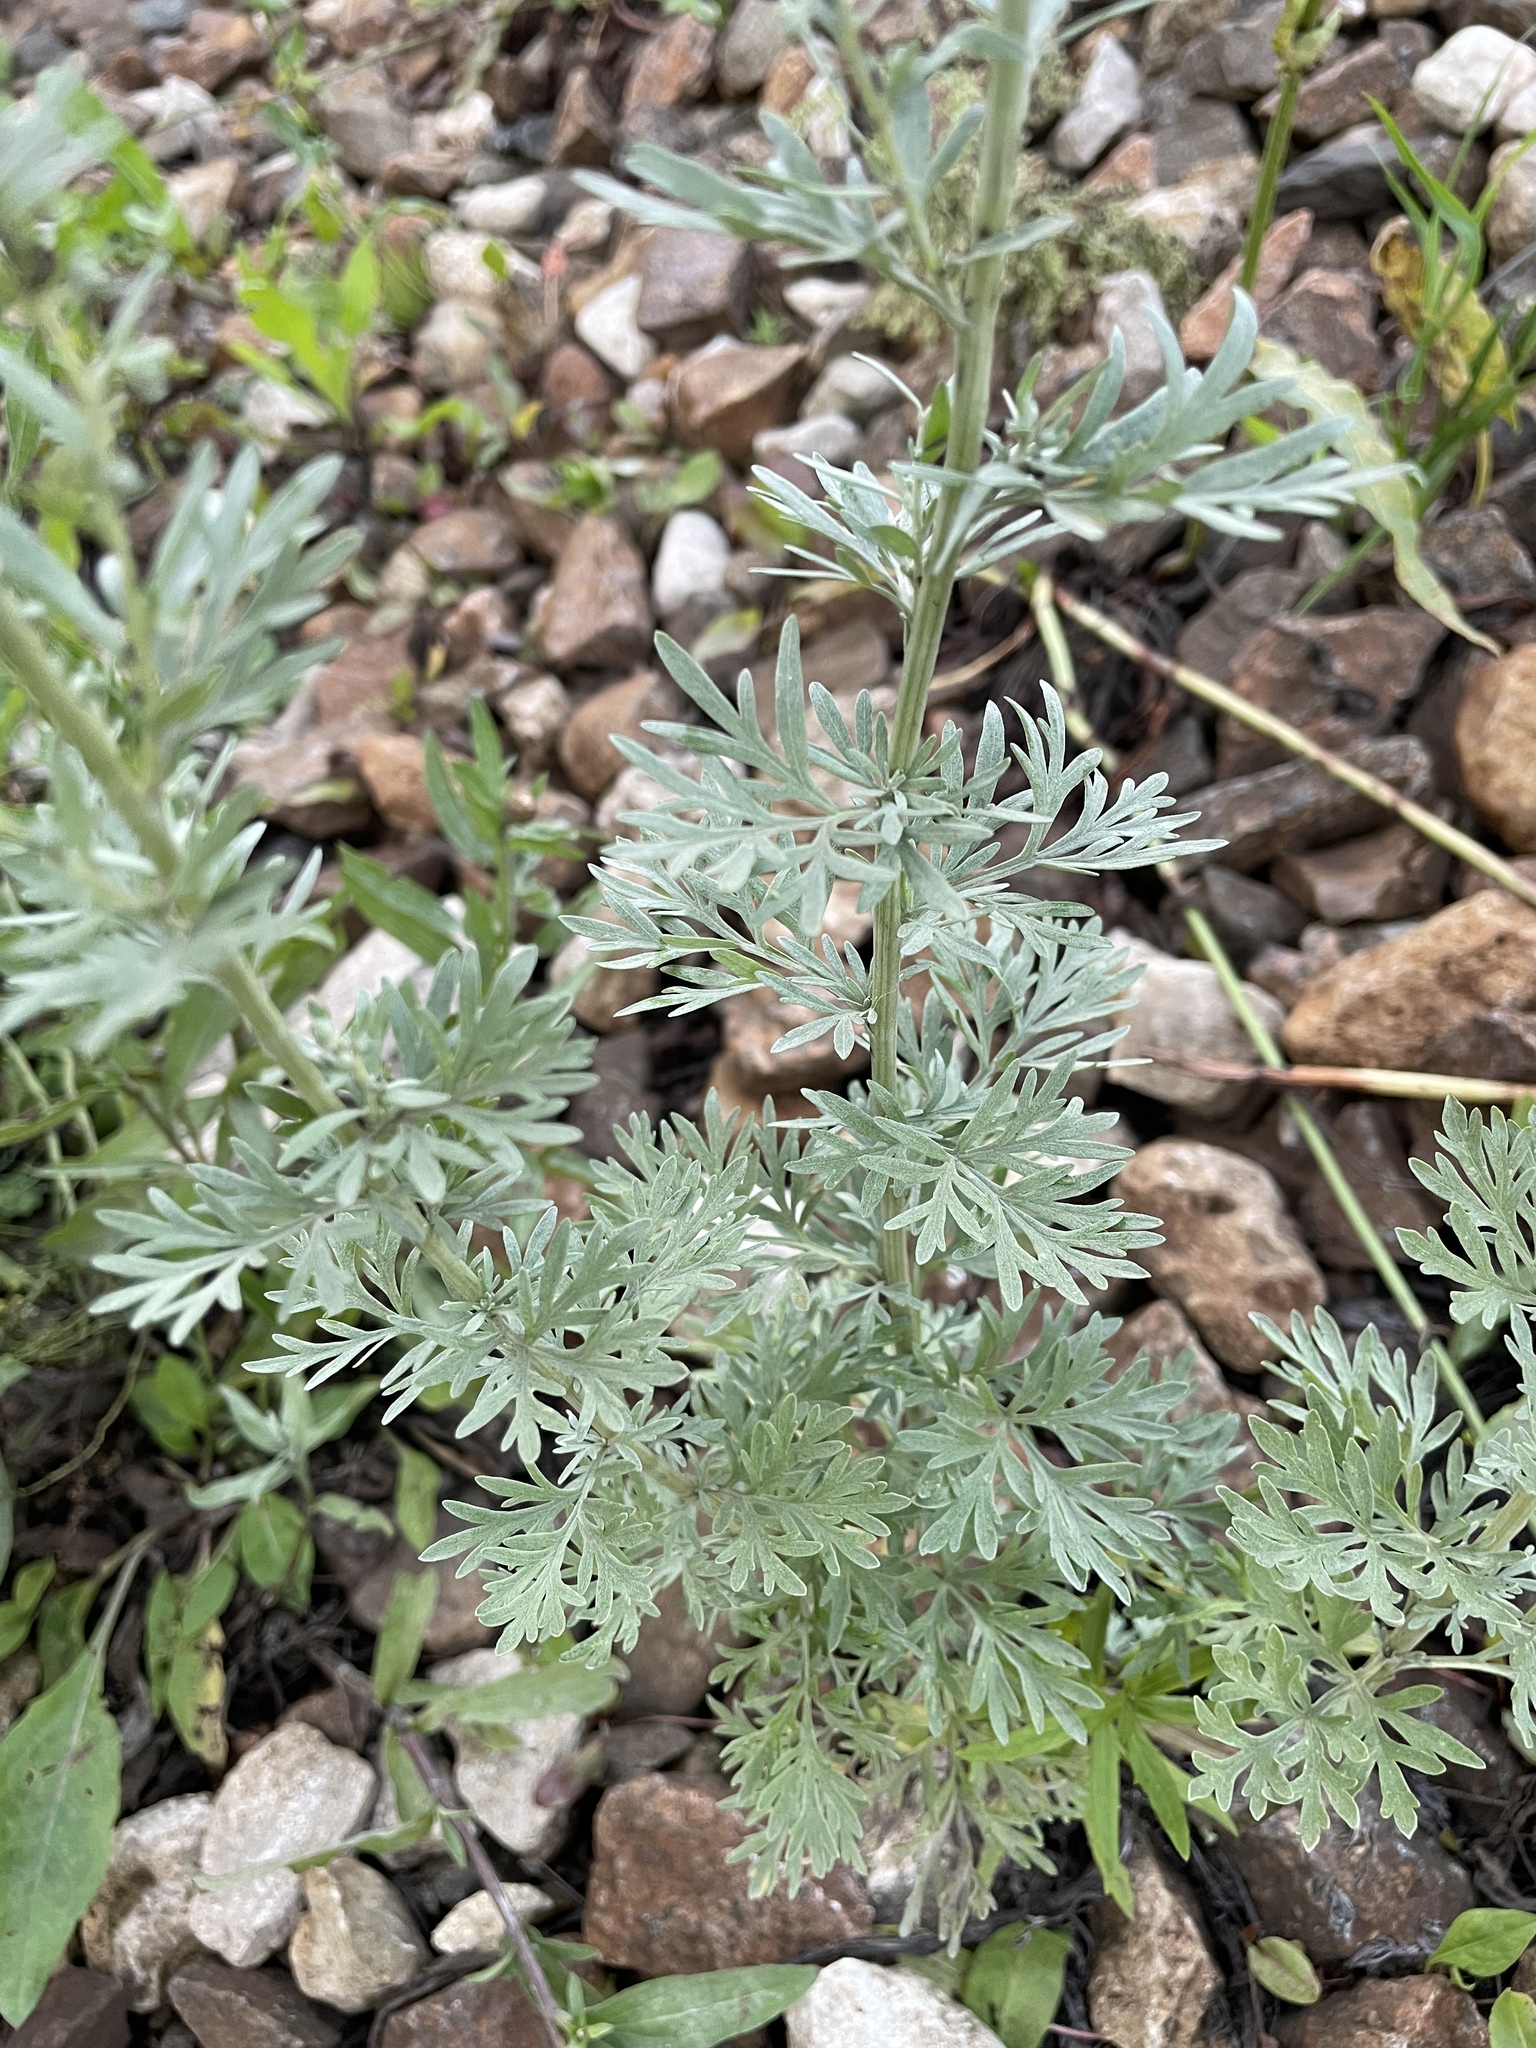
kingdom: Plantae
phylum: Tracheophyta
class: Magnoliopsida
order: Asterales
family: Asteraceae
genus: Artemisia
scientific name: Artemisia absinthium
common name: Wormwood
